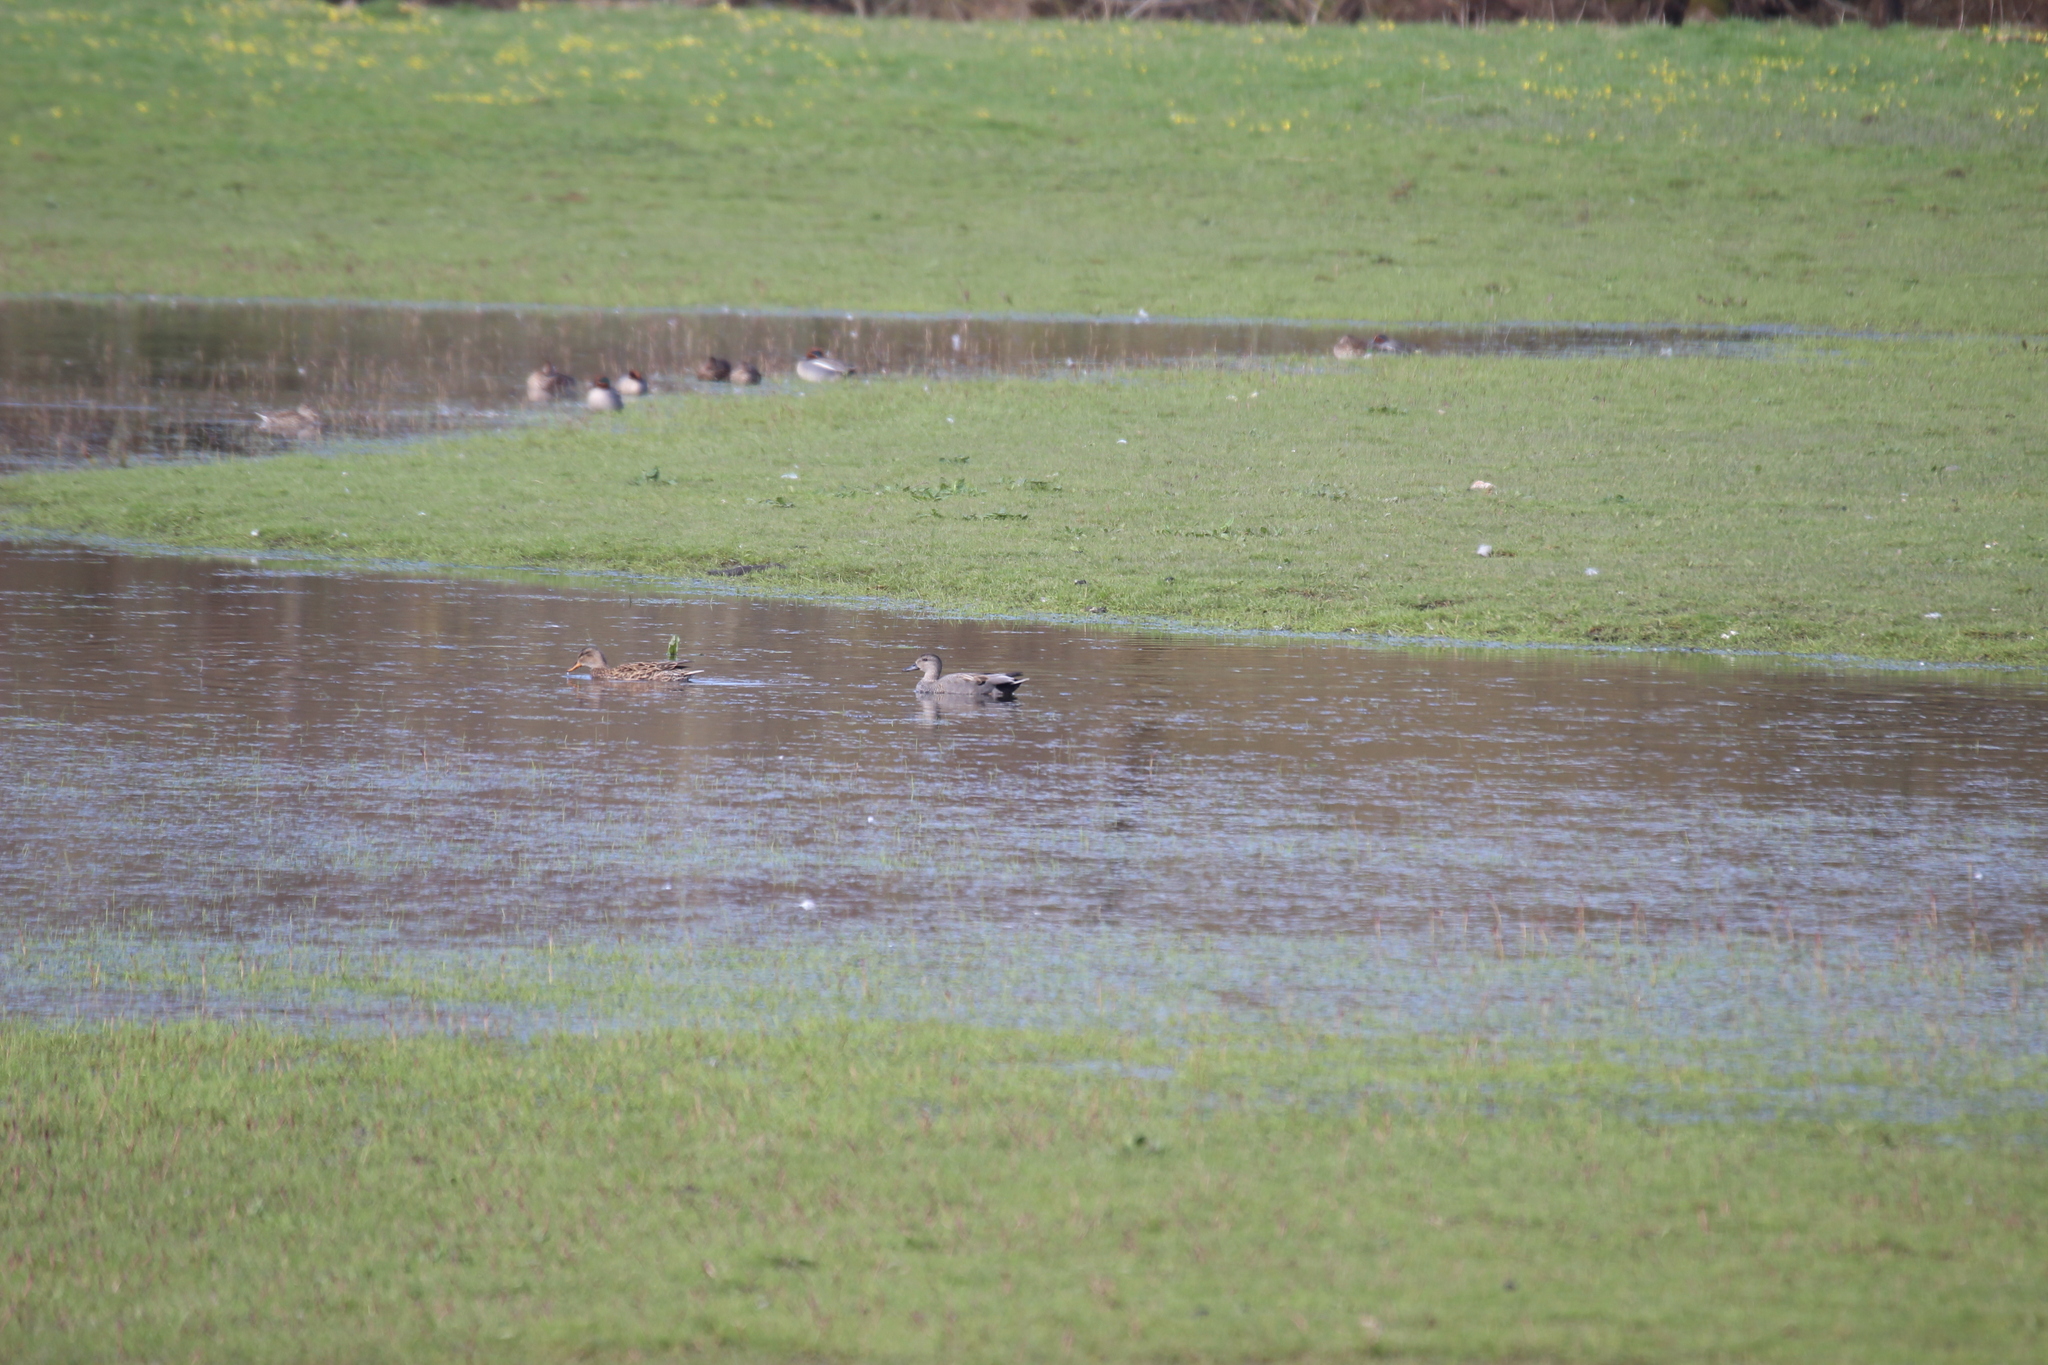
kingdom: Animalia
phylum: Chordata
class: Aves
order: Anseriformes
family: Anatidae
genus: Mareca
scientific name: Mareca strepera
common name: Gadwall
